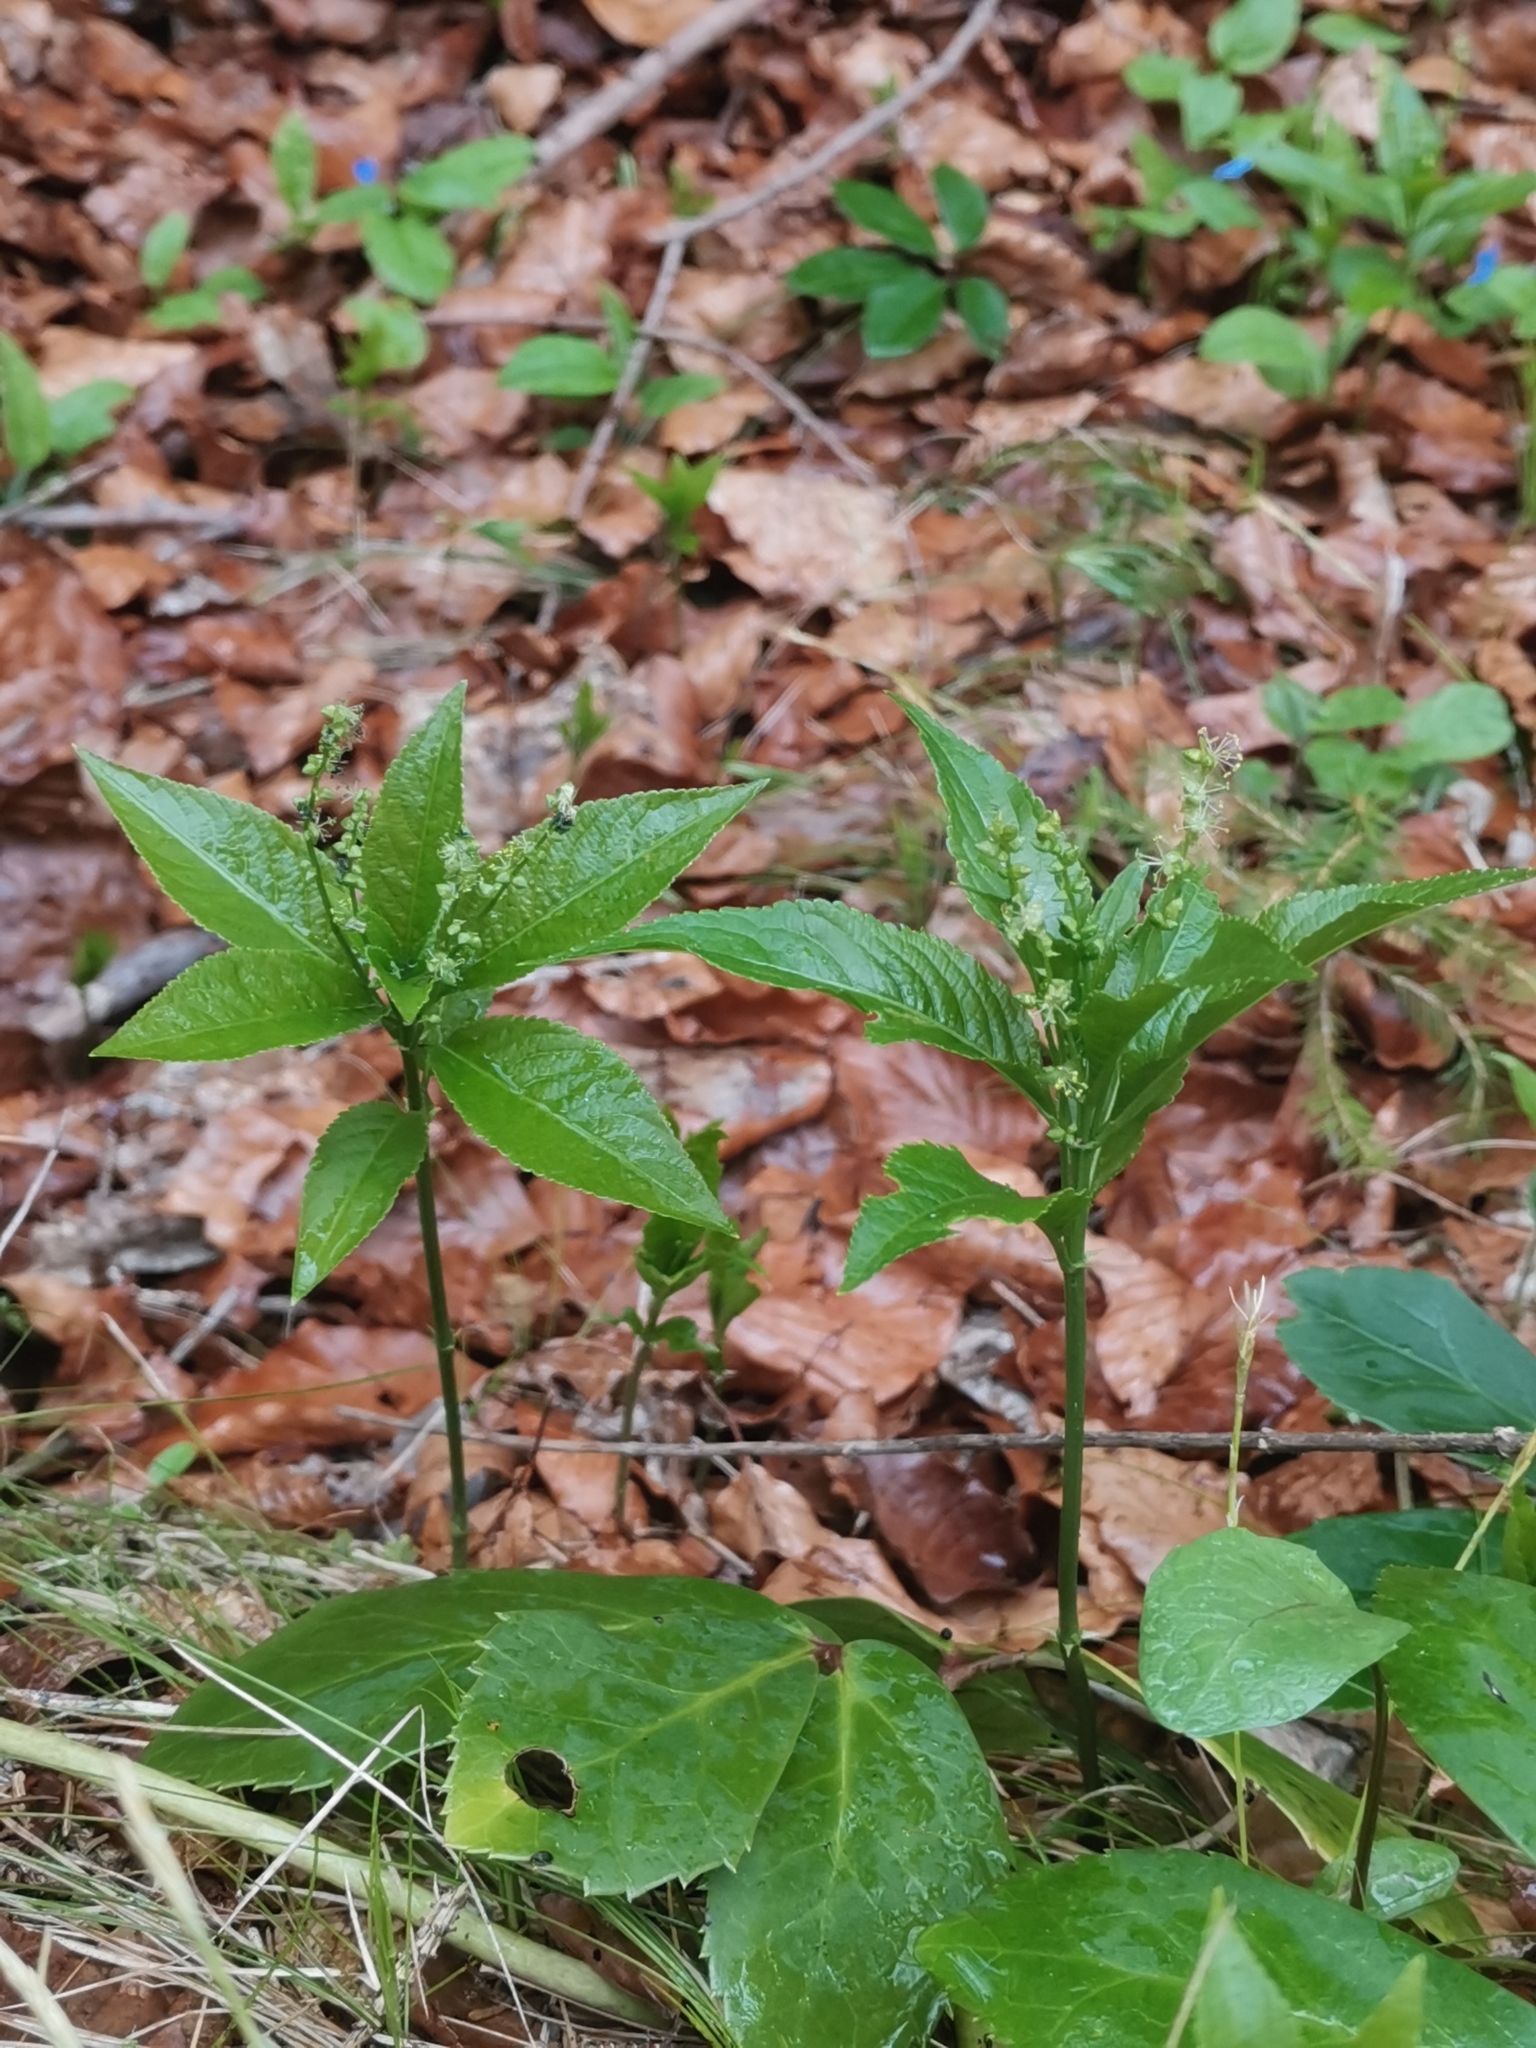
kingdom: Plantae
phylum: Tracheophyta
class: Magnoliopsida
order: Malpighiales
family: Euphorbiaceae
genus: Mercurialis
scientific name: Mercurialis perennis
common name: Dog mercury
